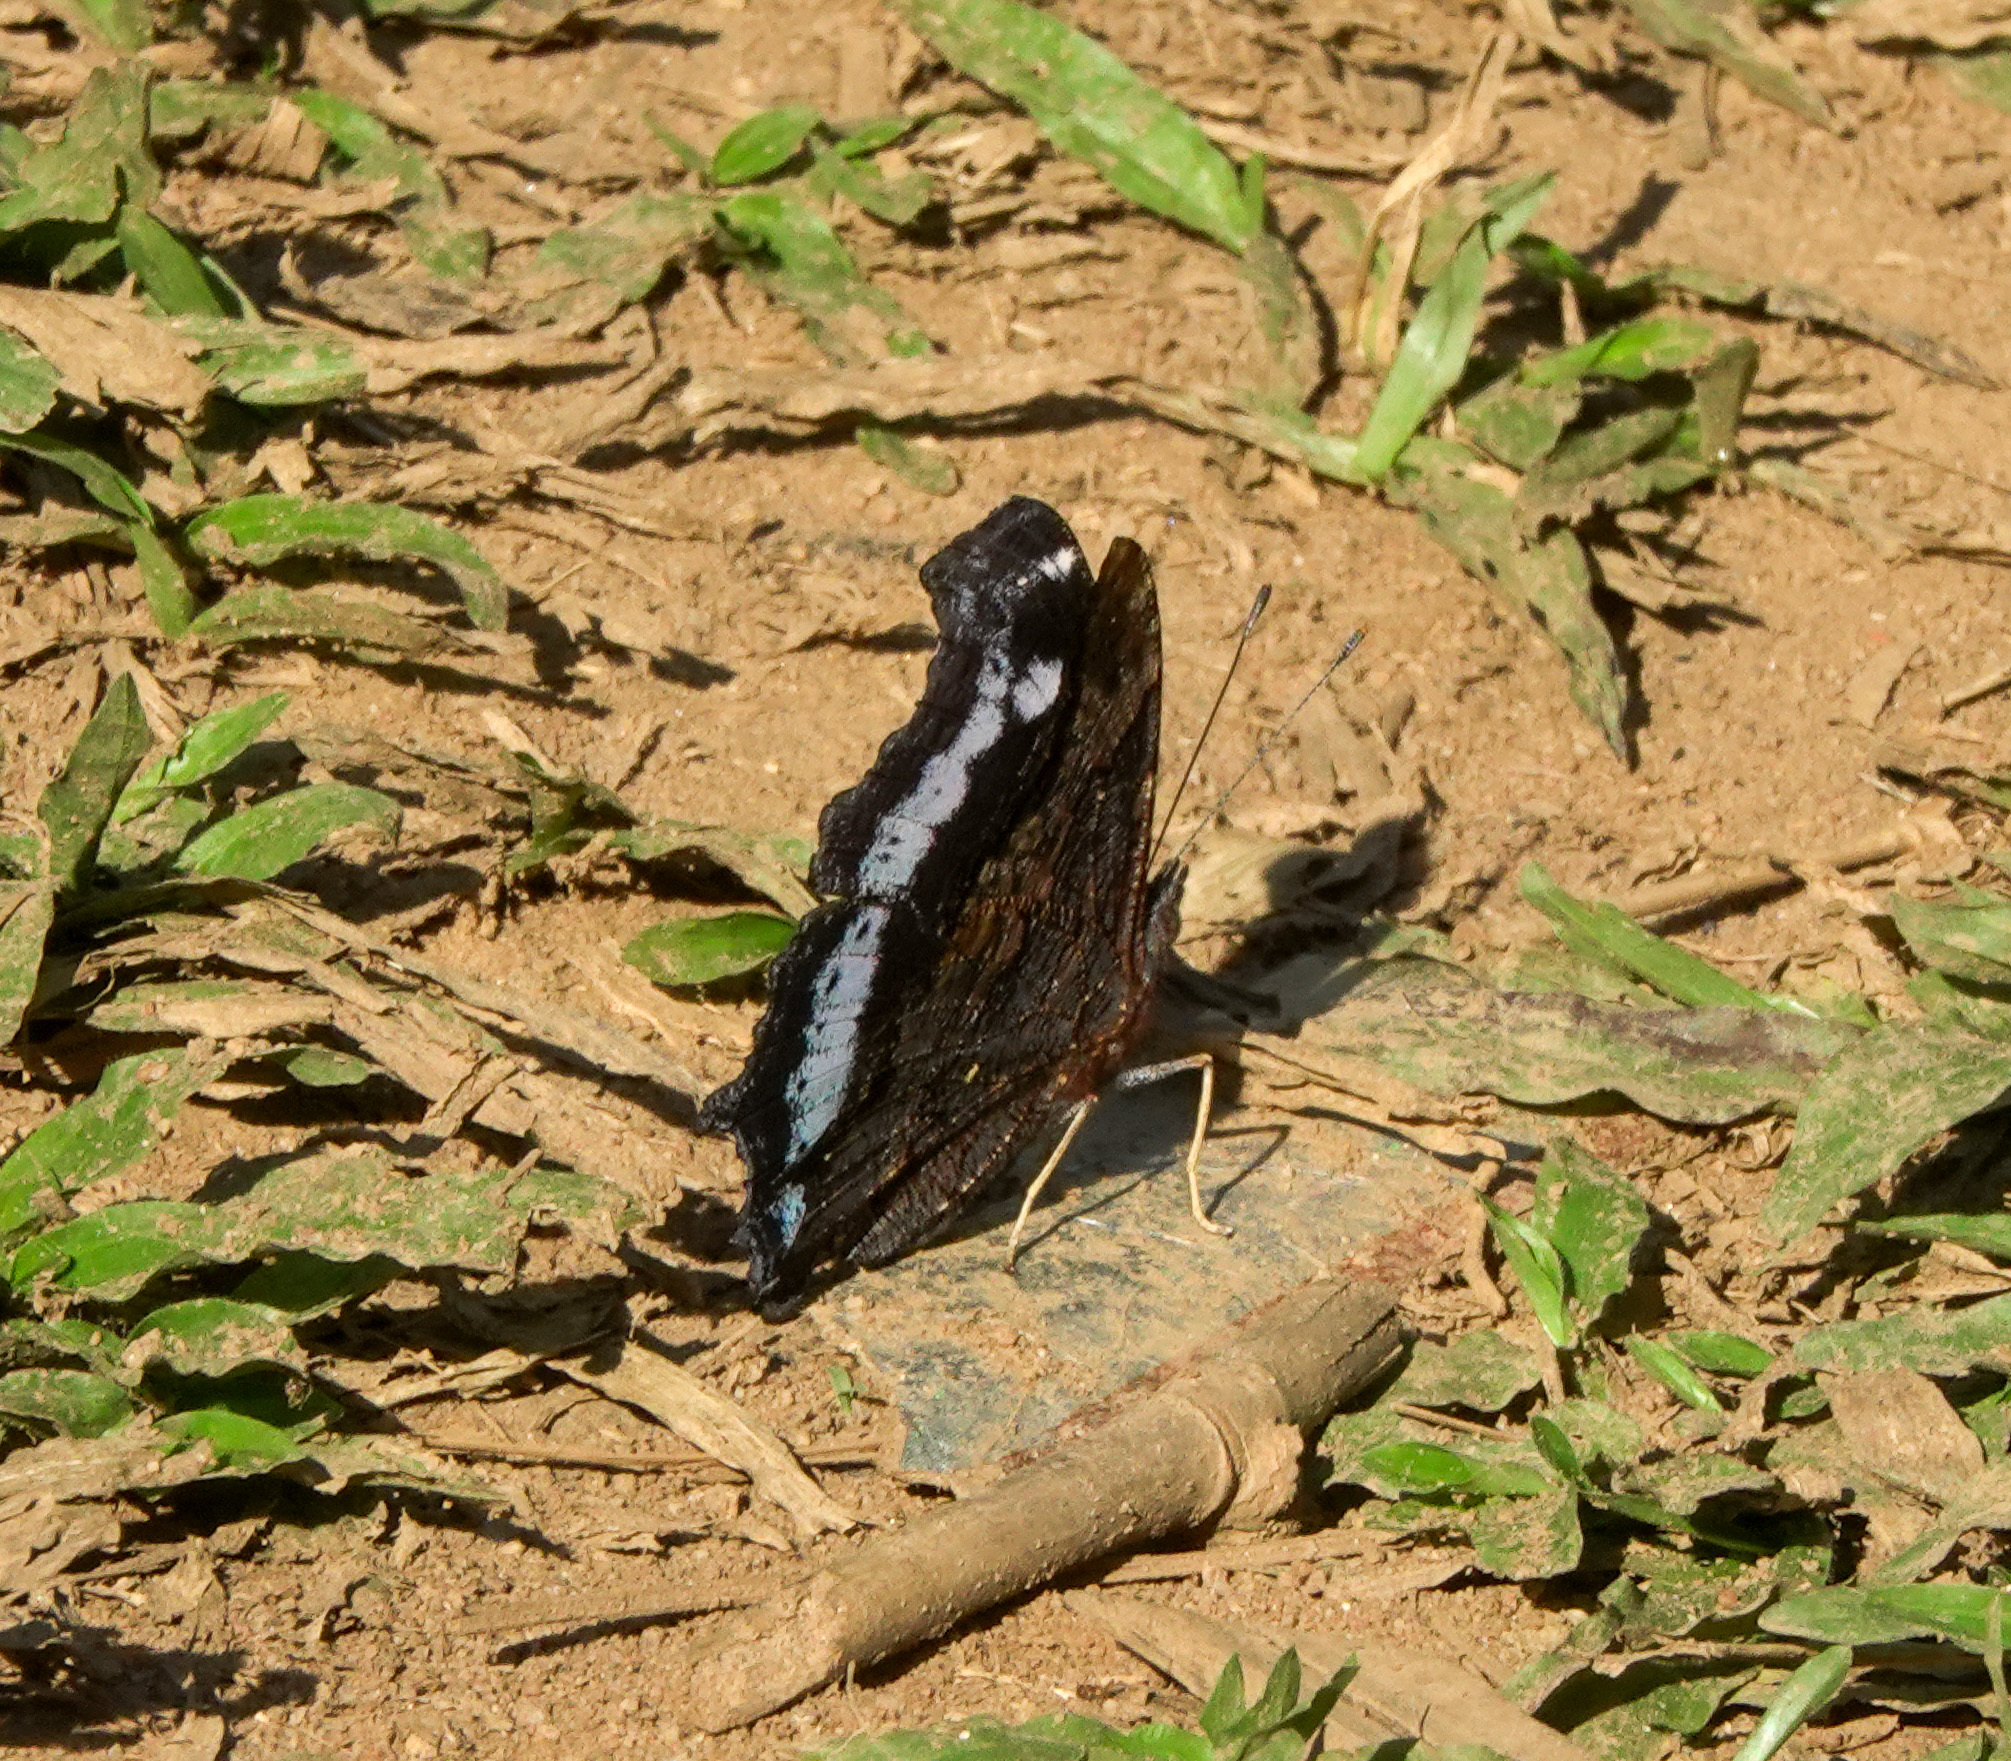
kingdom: Animalia
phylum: Arthropoda
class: Insecta
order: Lepidoptera
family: Nymphalidae
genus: Vanessa
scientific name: Vanessa Kaniska canace
